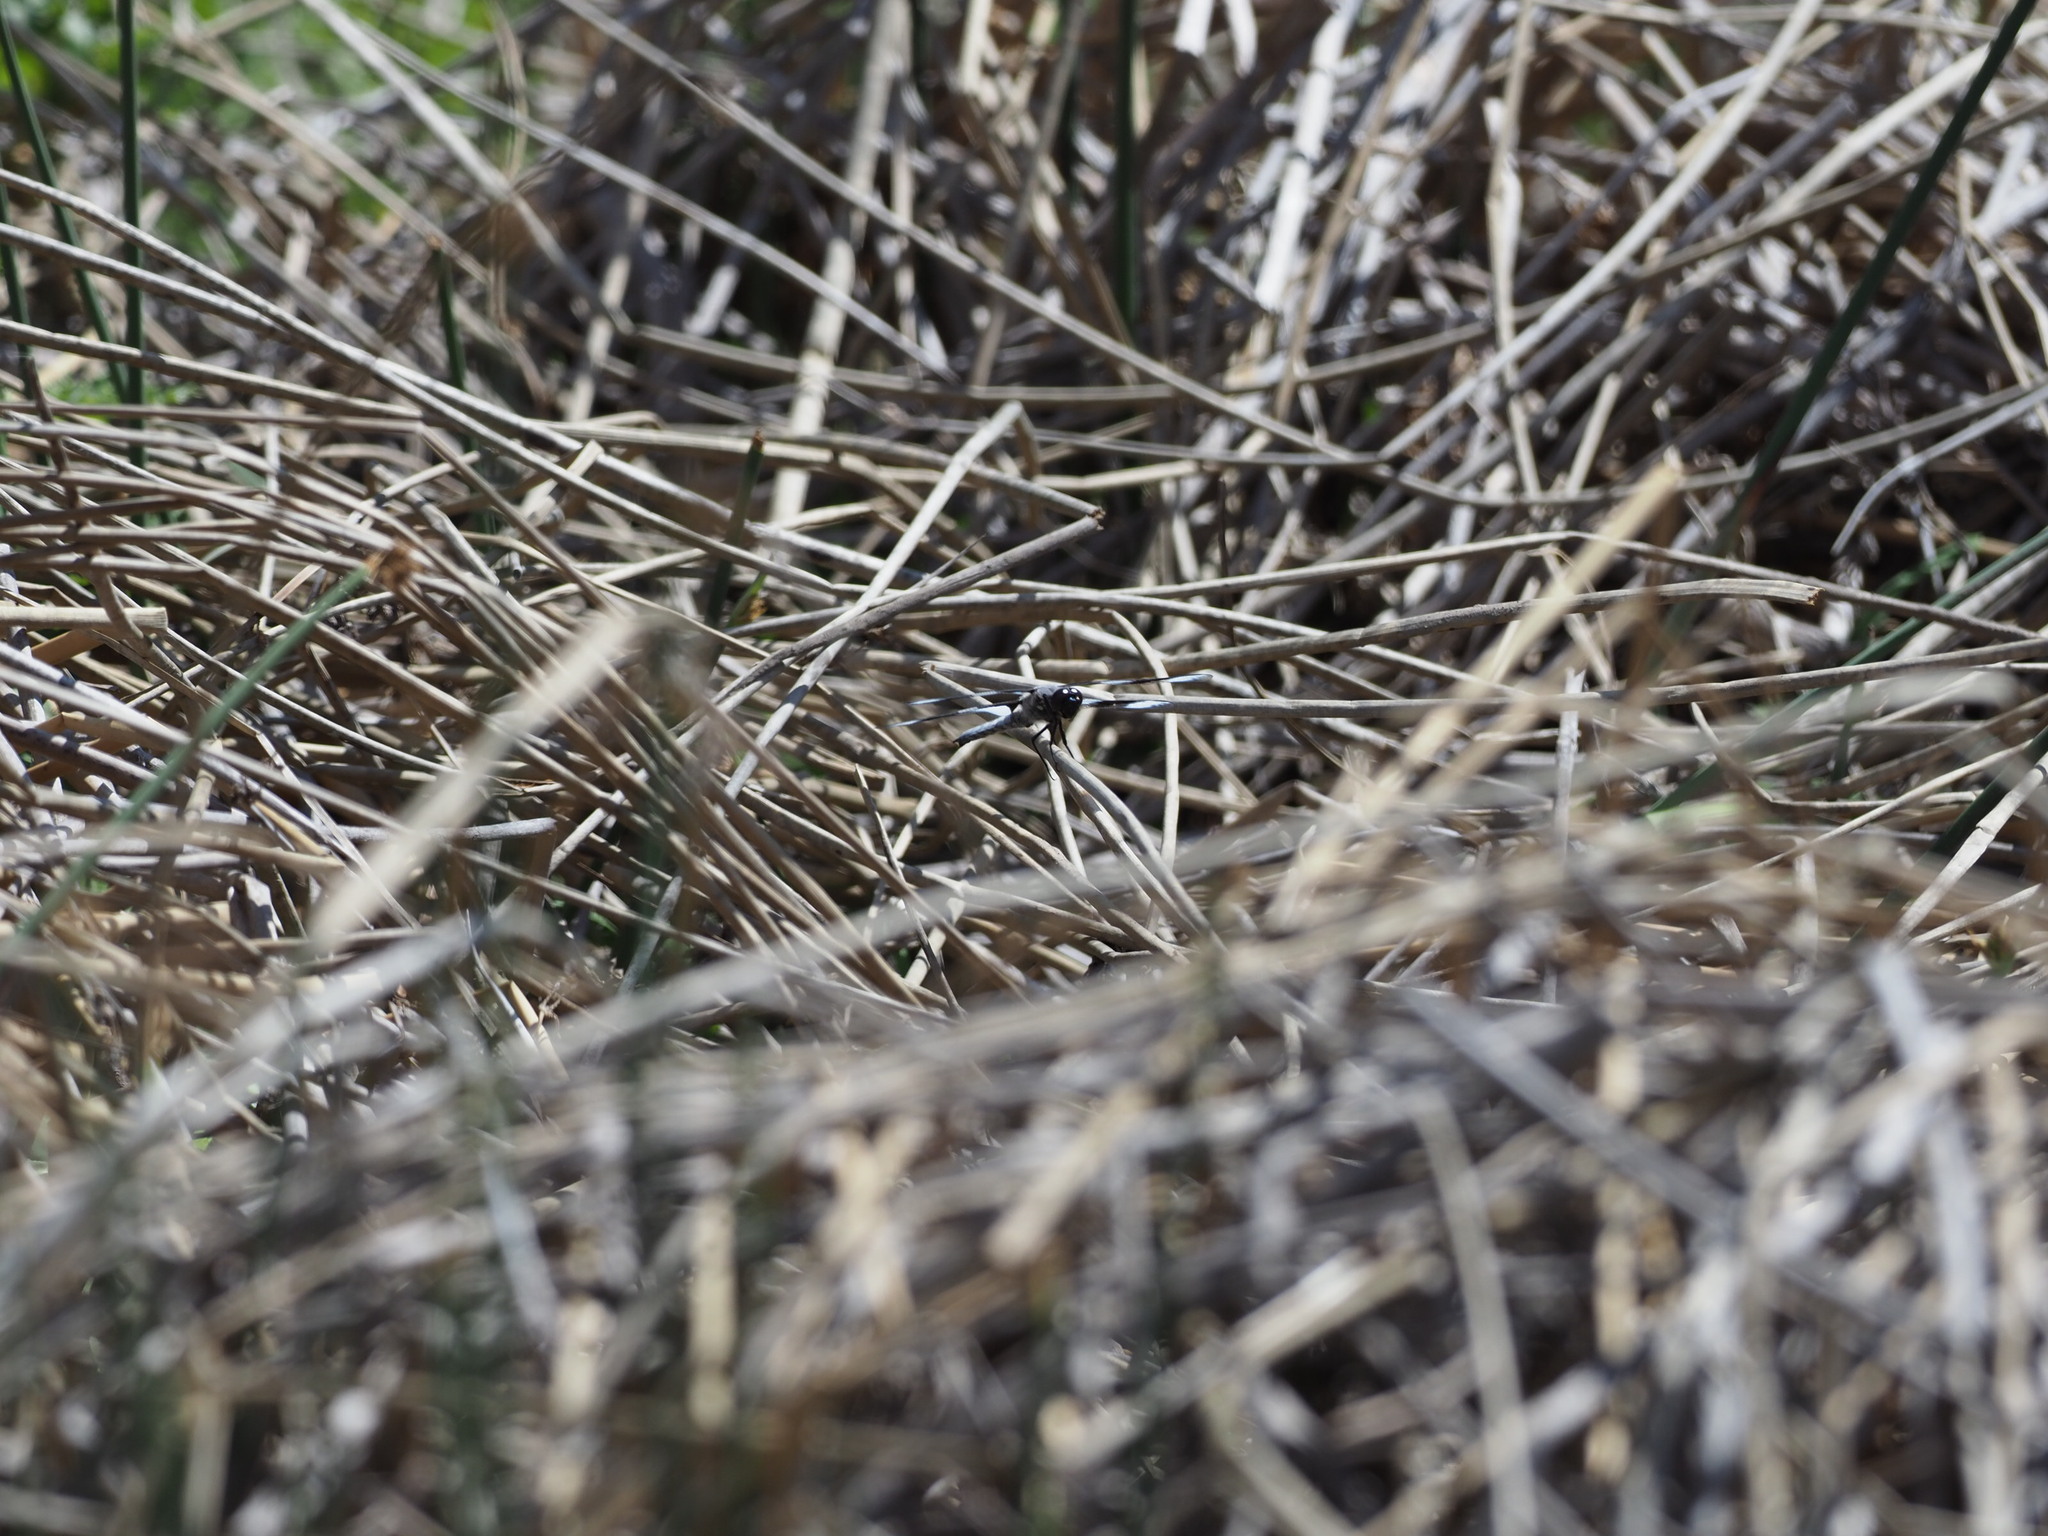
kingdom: Animalia
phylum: Arthropoda
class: Insecta
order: Odonata
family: Libellulidae
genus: Libellula
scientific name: Libellula forensis
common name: Eight-spotted skimmer
